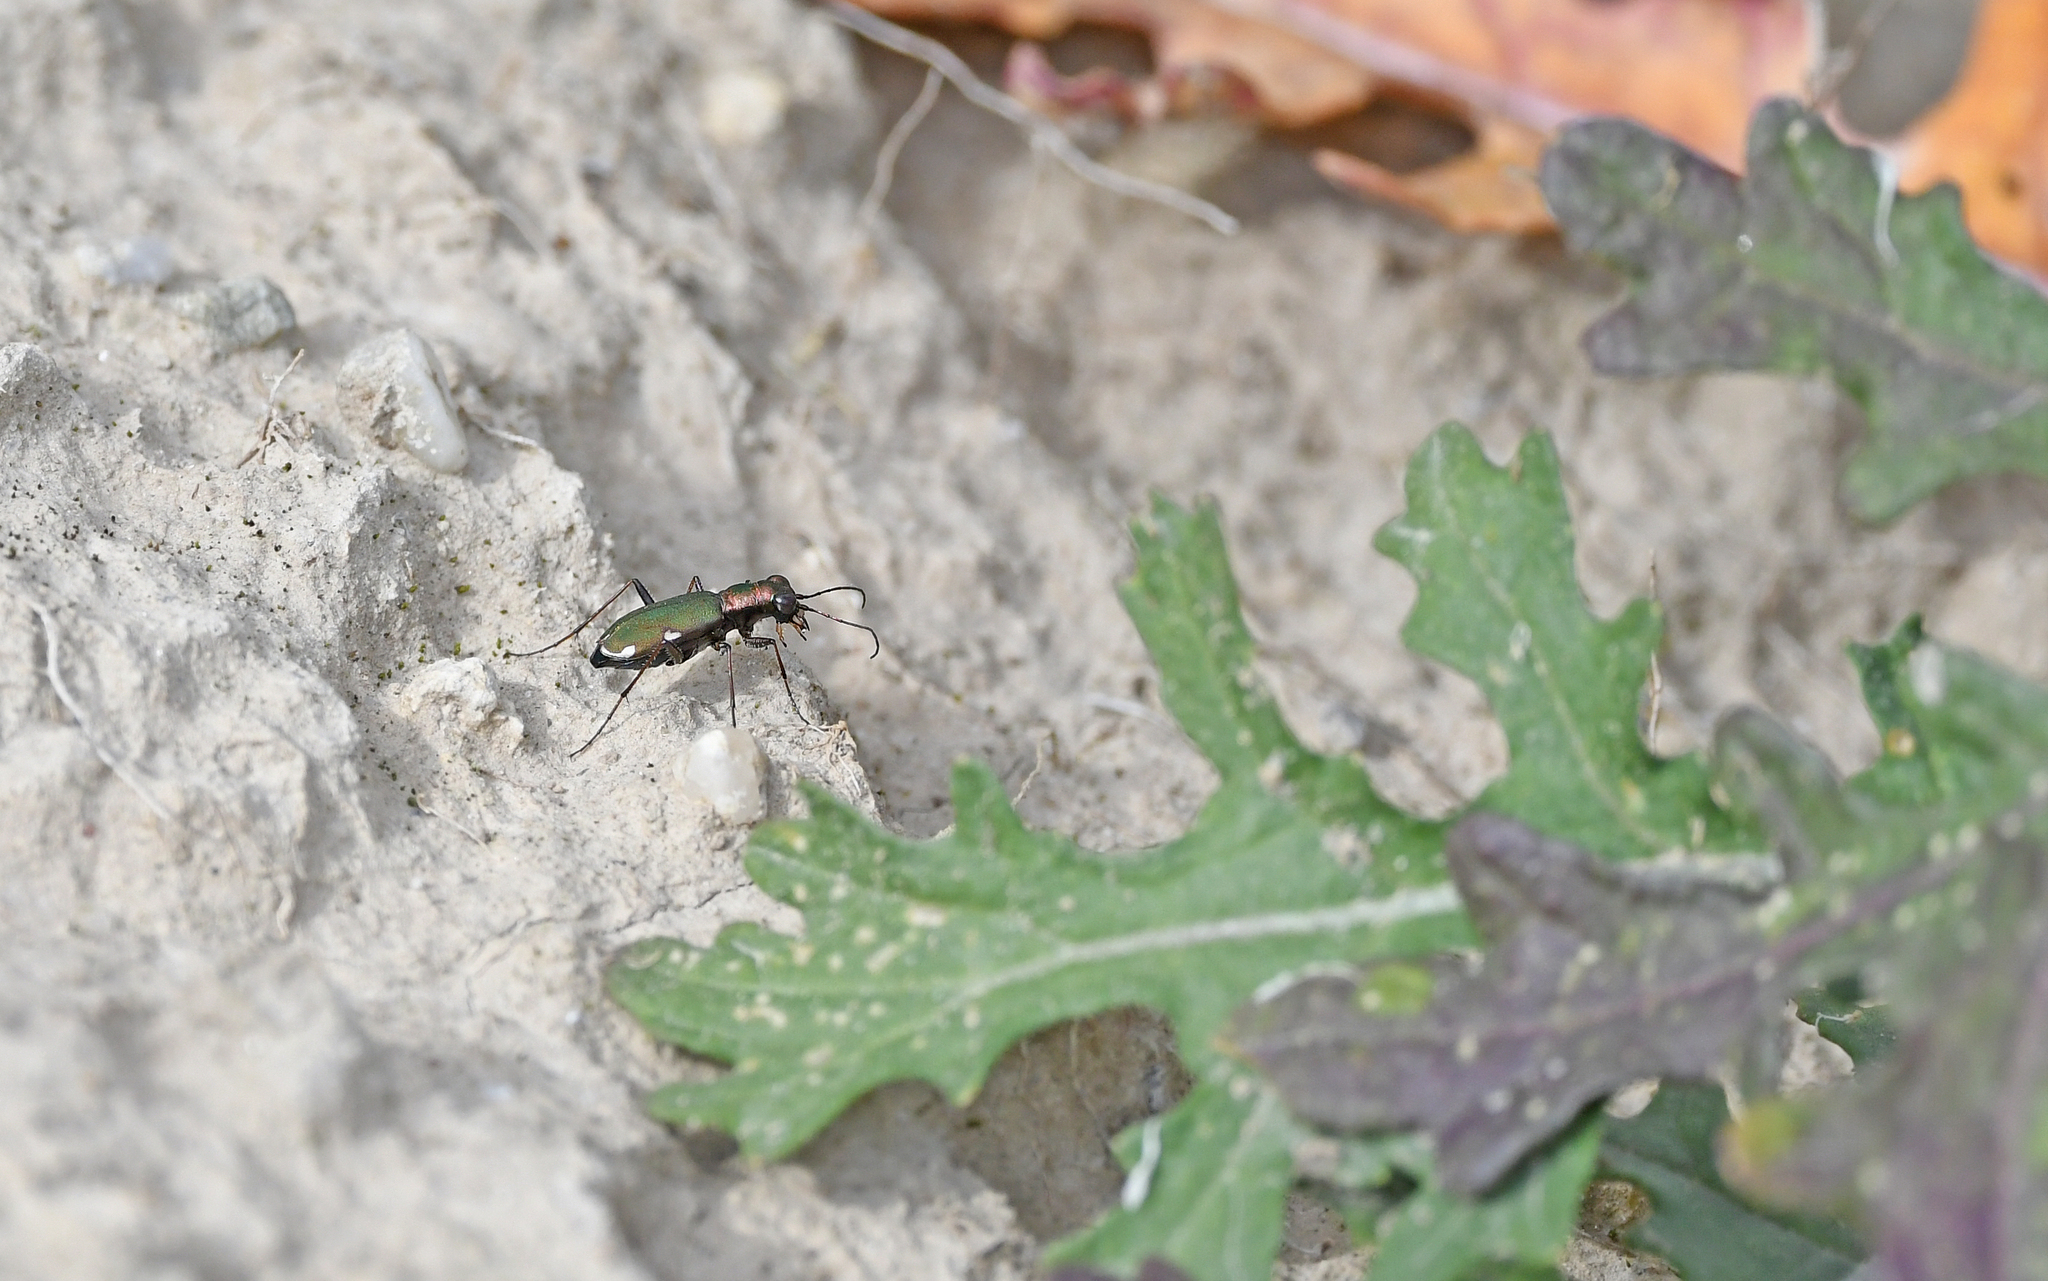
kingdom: Animalia
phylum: Arthropoda
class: Insecta
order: Coleoptera
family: Carabidae
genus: Cylindera
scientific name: Cylindera germanica
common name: Cliff tiger beetle
